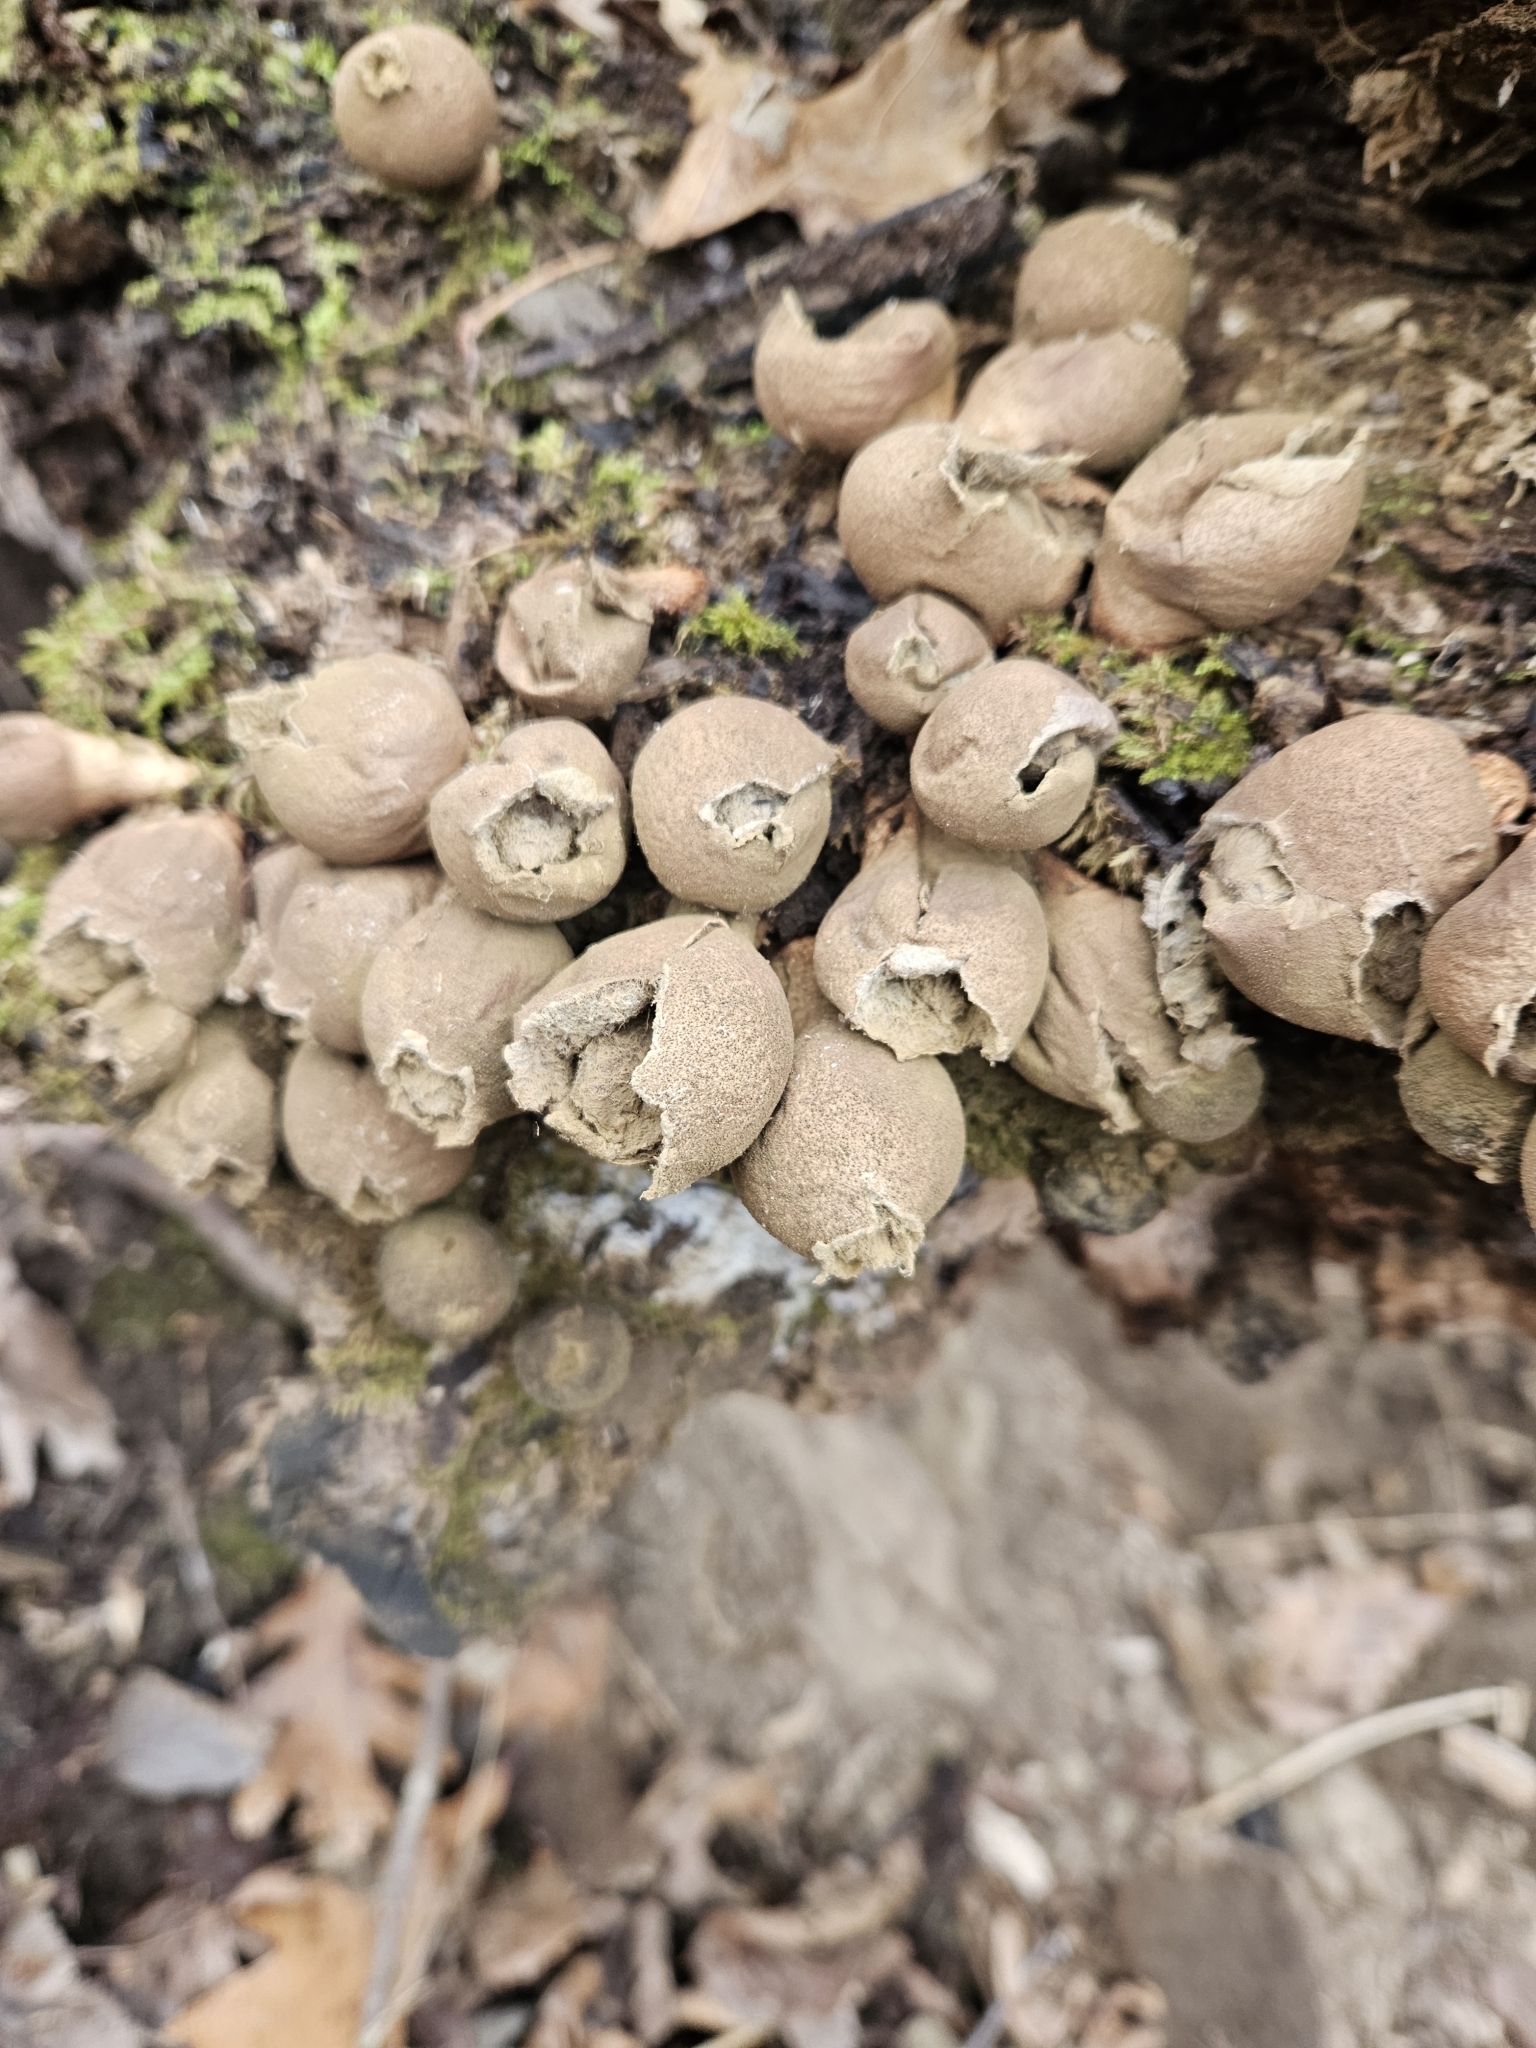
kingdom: Fungi
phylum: Basidiomycota
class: Agaricomycetes
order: Agaricales
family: Lycoperdaceae
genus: Apioperdon
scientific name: Apioperdon pyriforme
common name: Pear-shaped puffball
